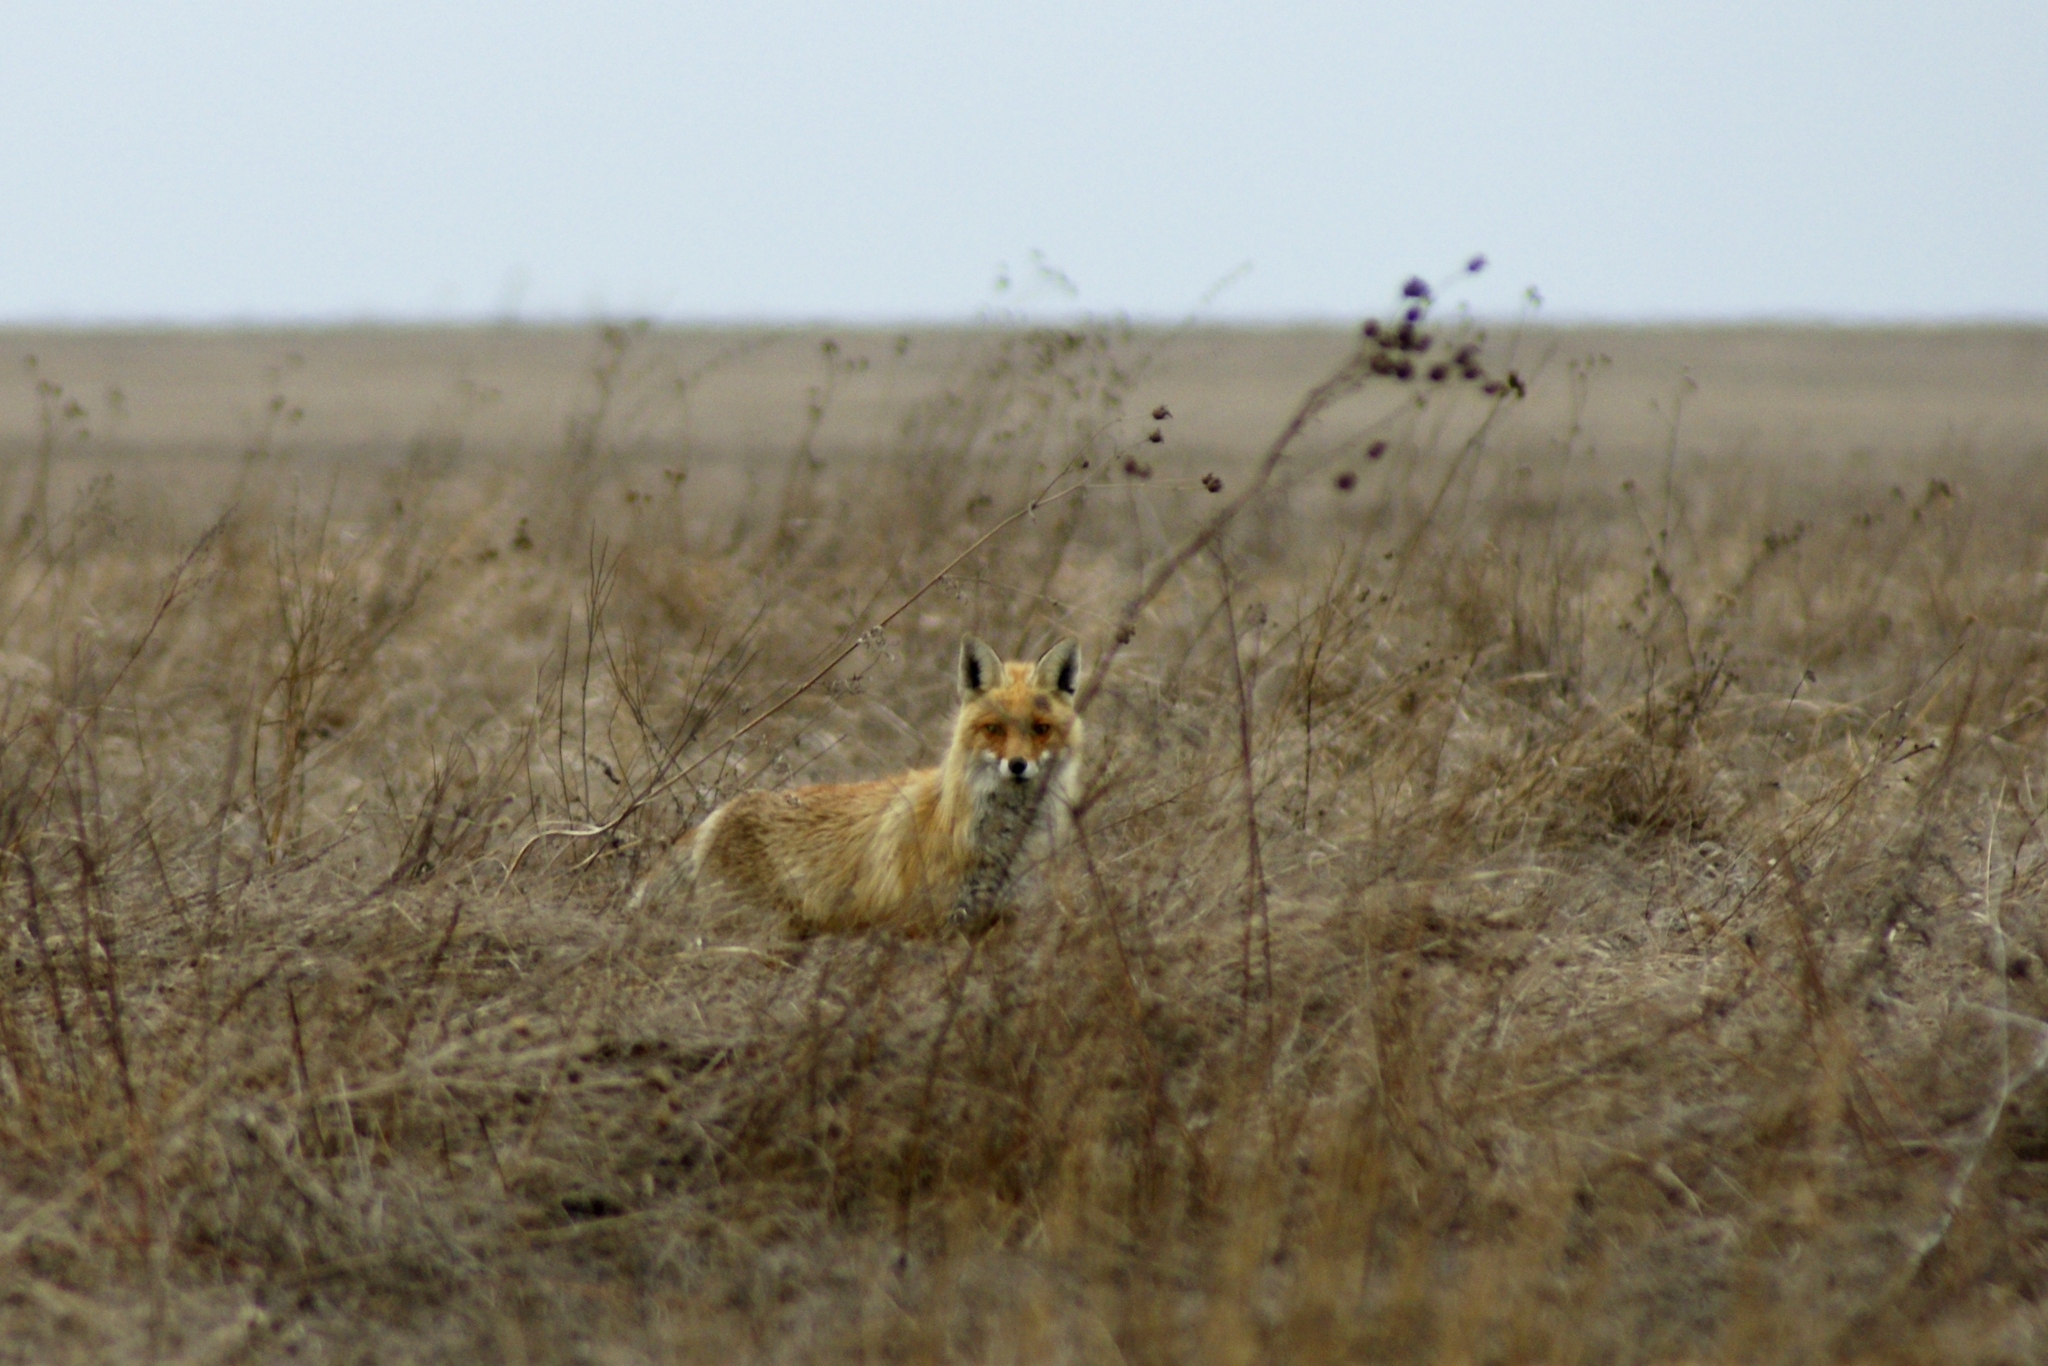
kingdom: Animalia
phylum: Chordata
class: Mammalia
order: Carnivora
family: Canidae
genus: Vulpes
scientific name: Vulpes vulpes
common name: Red fox
